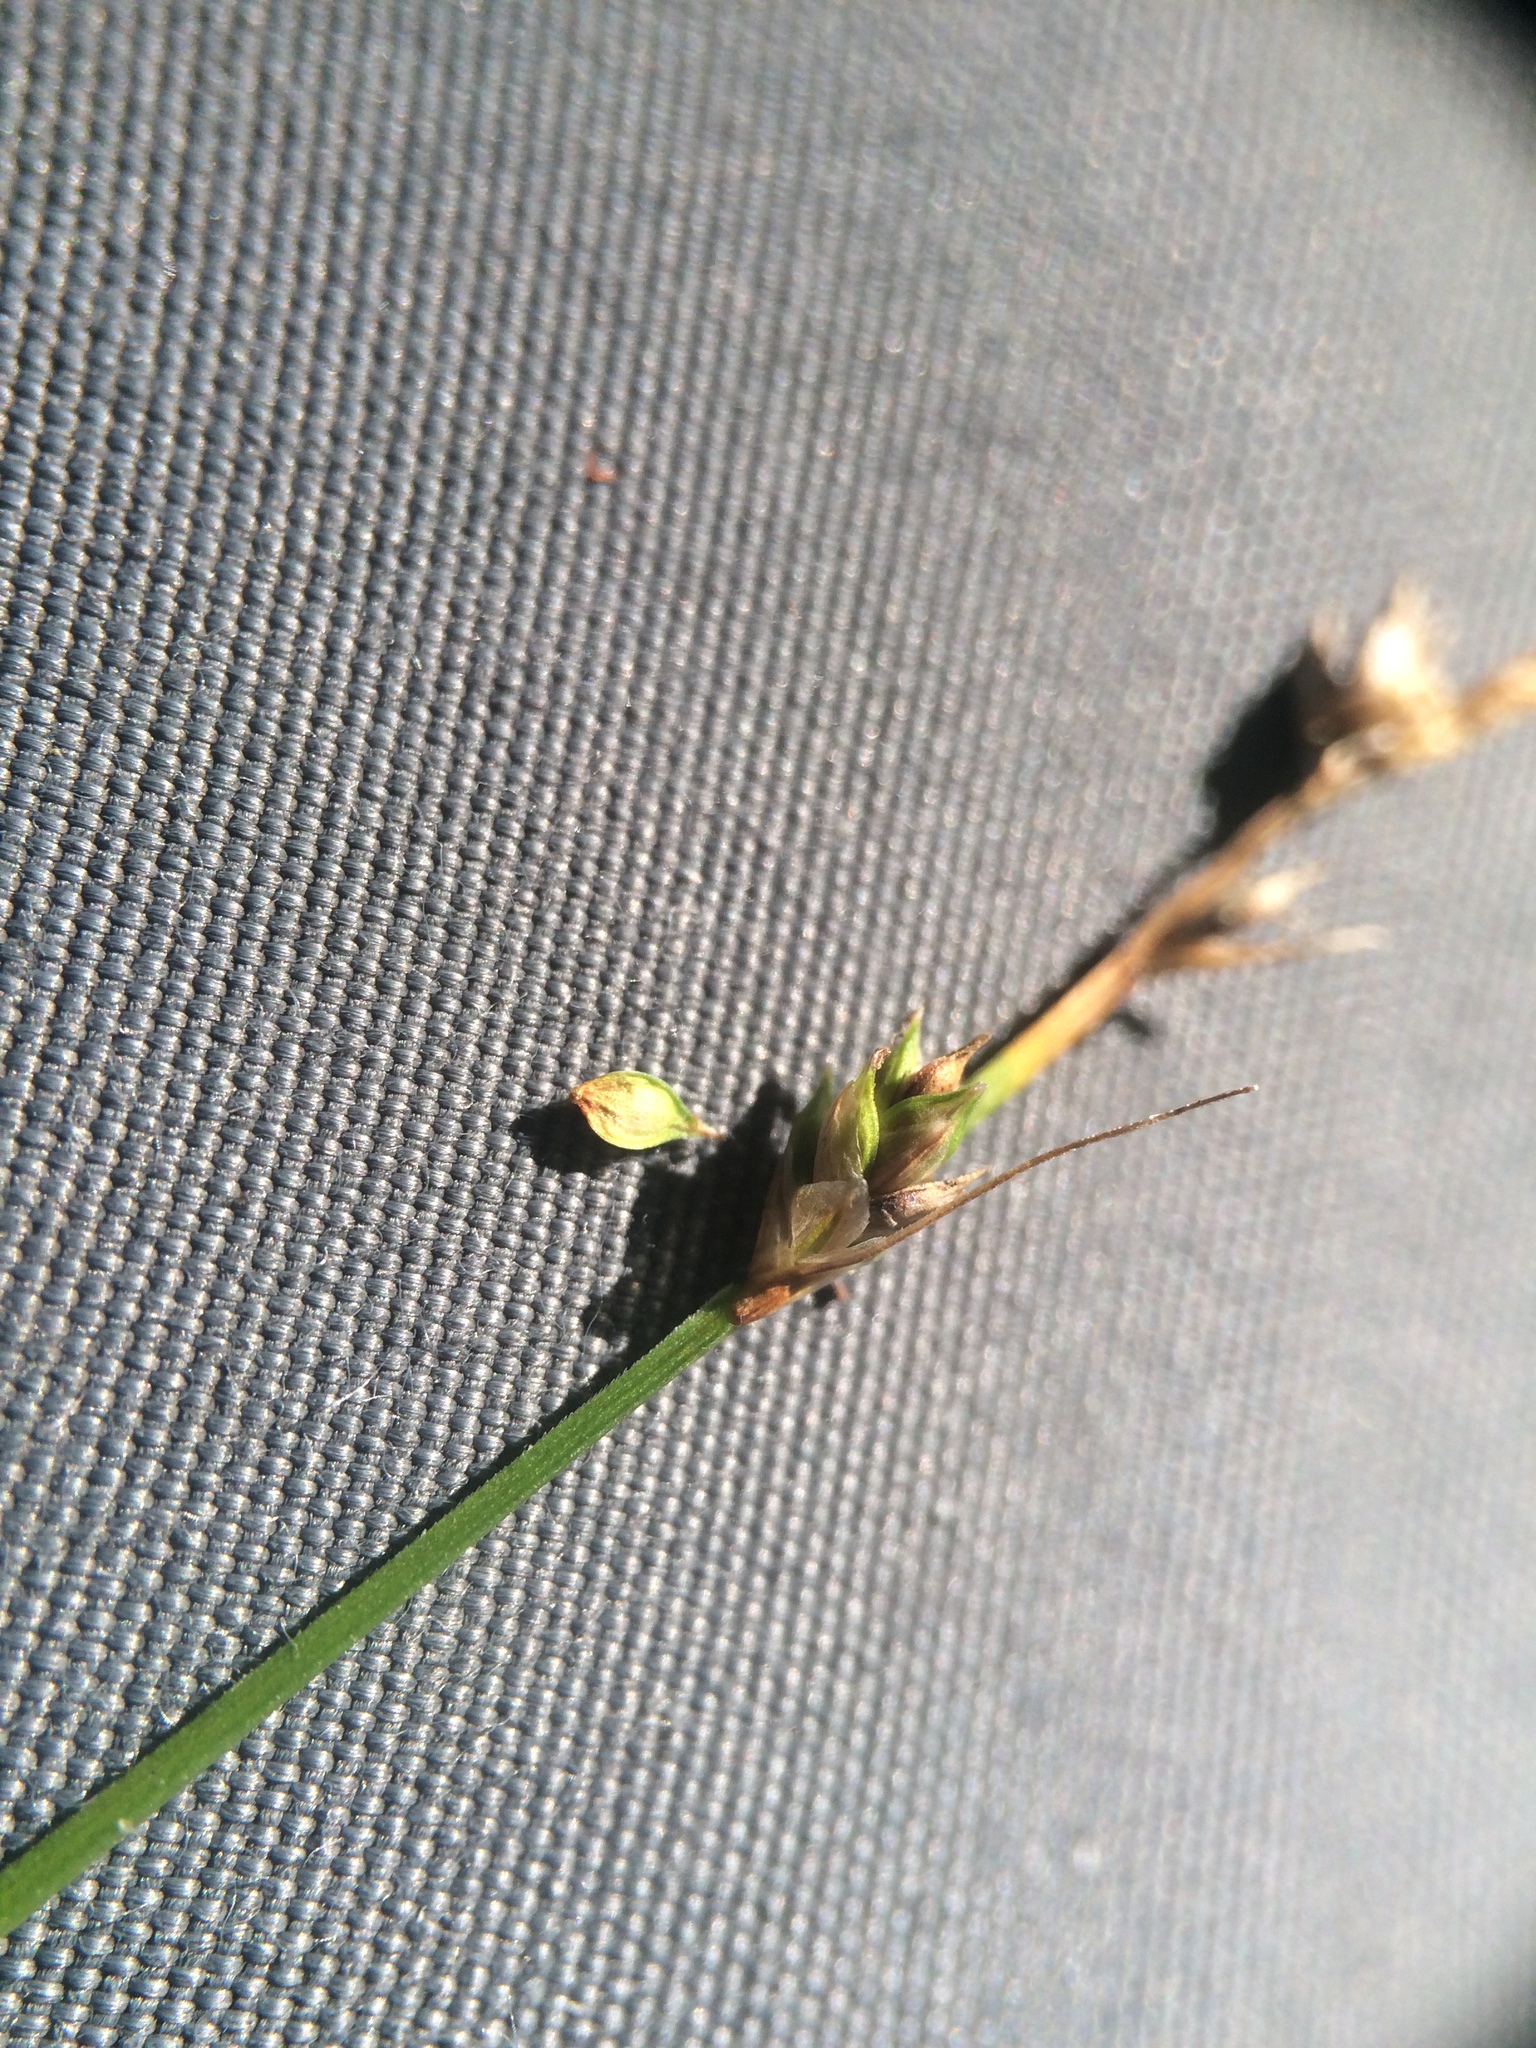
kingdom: Plantae
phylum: Tracheophyta
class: Liliopsida
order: Poales
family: Cyperaceae
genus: Carex
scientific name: Carex brunnescens
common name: Brown sedge
